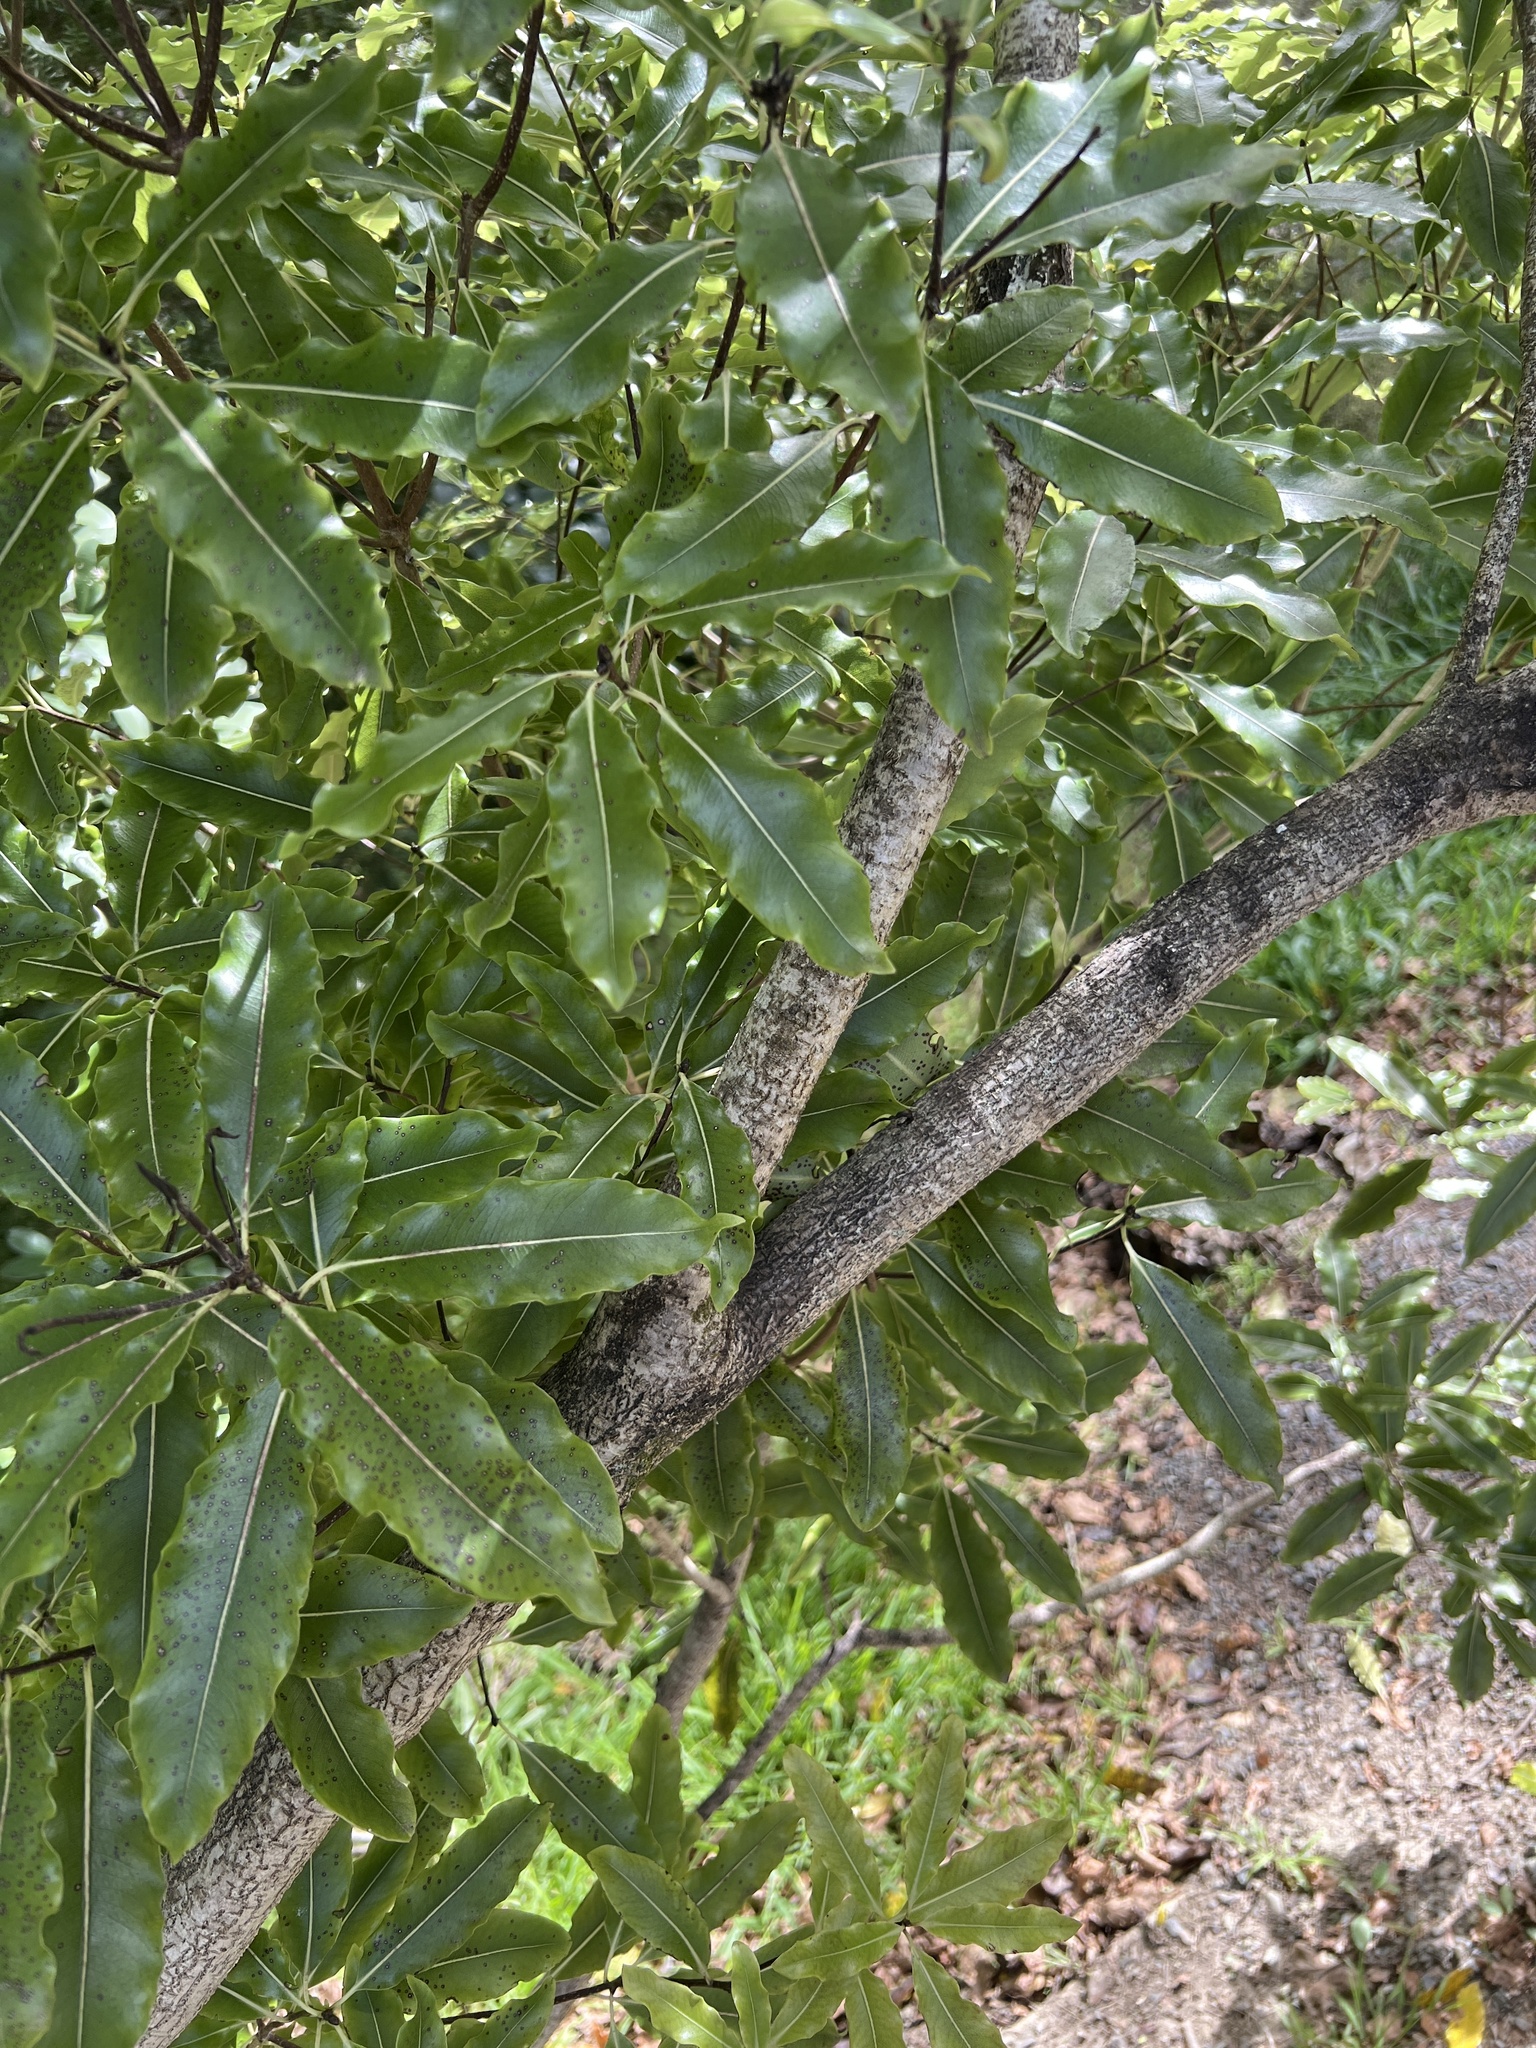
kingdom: Plantae
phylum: Tracheophyta
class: Magnoliopsida
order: Apiales
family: Pittosporaceae
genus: Pittosporum
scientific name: Pittosporum eugenioides
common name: Lemonwood
